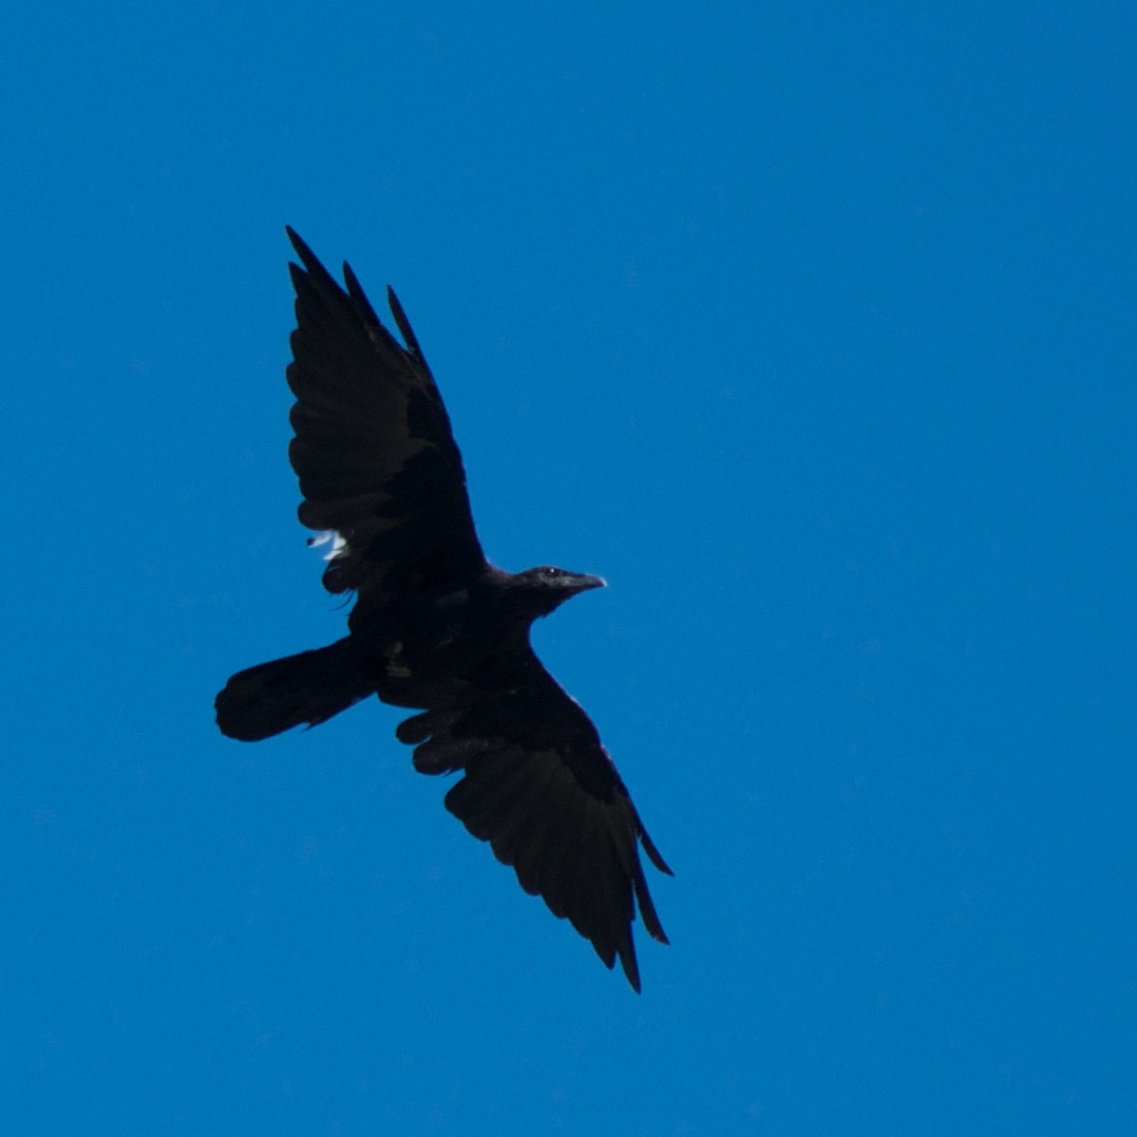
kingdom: Animalia
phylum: Chordata
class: Aves
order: Passeriformes
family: Corvidae
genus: Corvus
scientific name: Corvus corax
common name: Common raven
